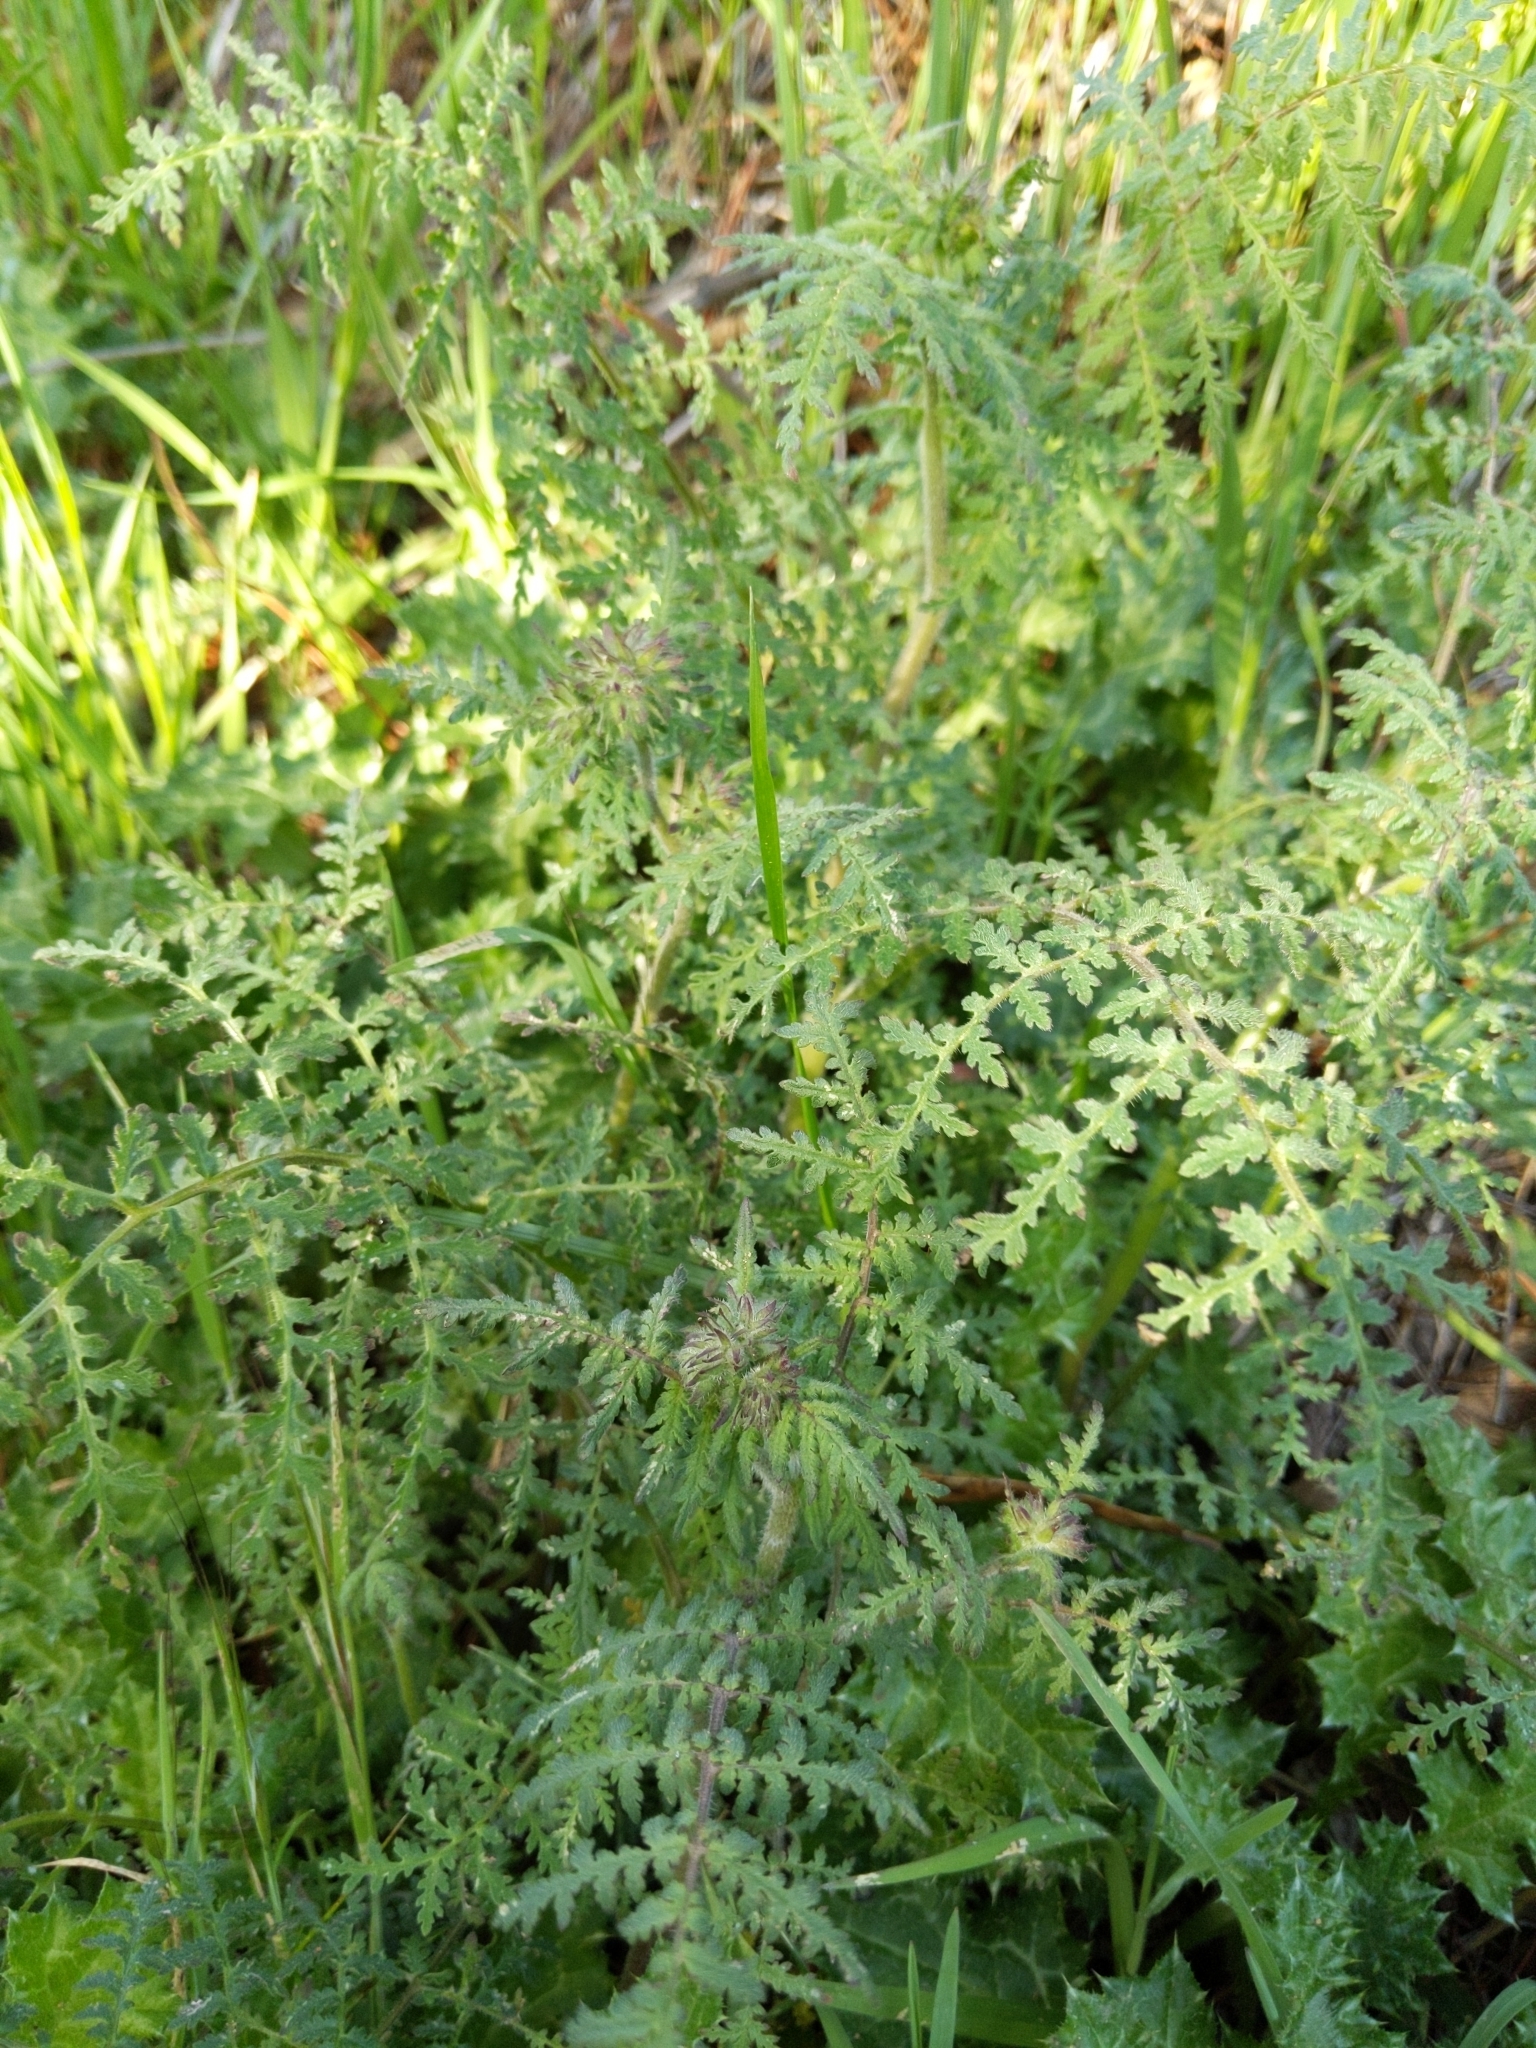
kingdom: Plantae
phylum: Tracheophyta
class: Magnoliopsida
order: Boraginales
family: Hydrophyllaceae
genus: Phacelia
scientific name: Phacelia distans
